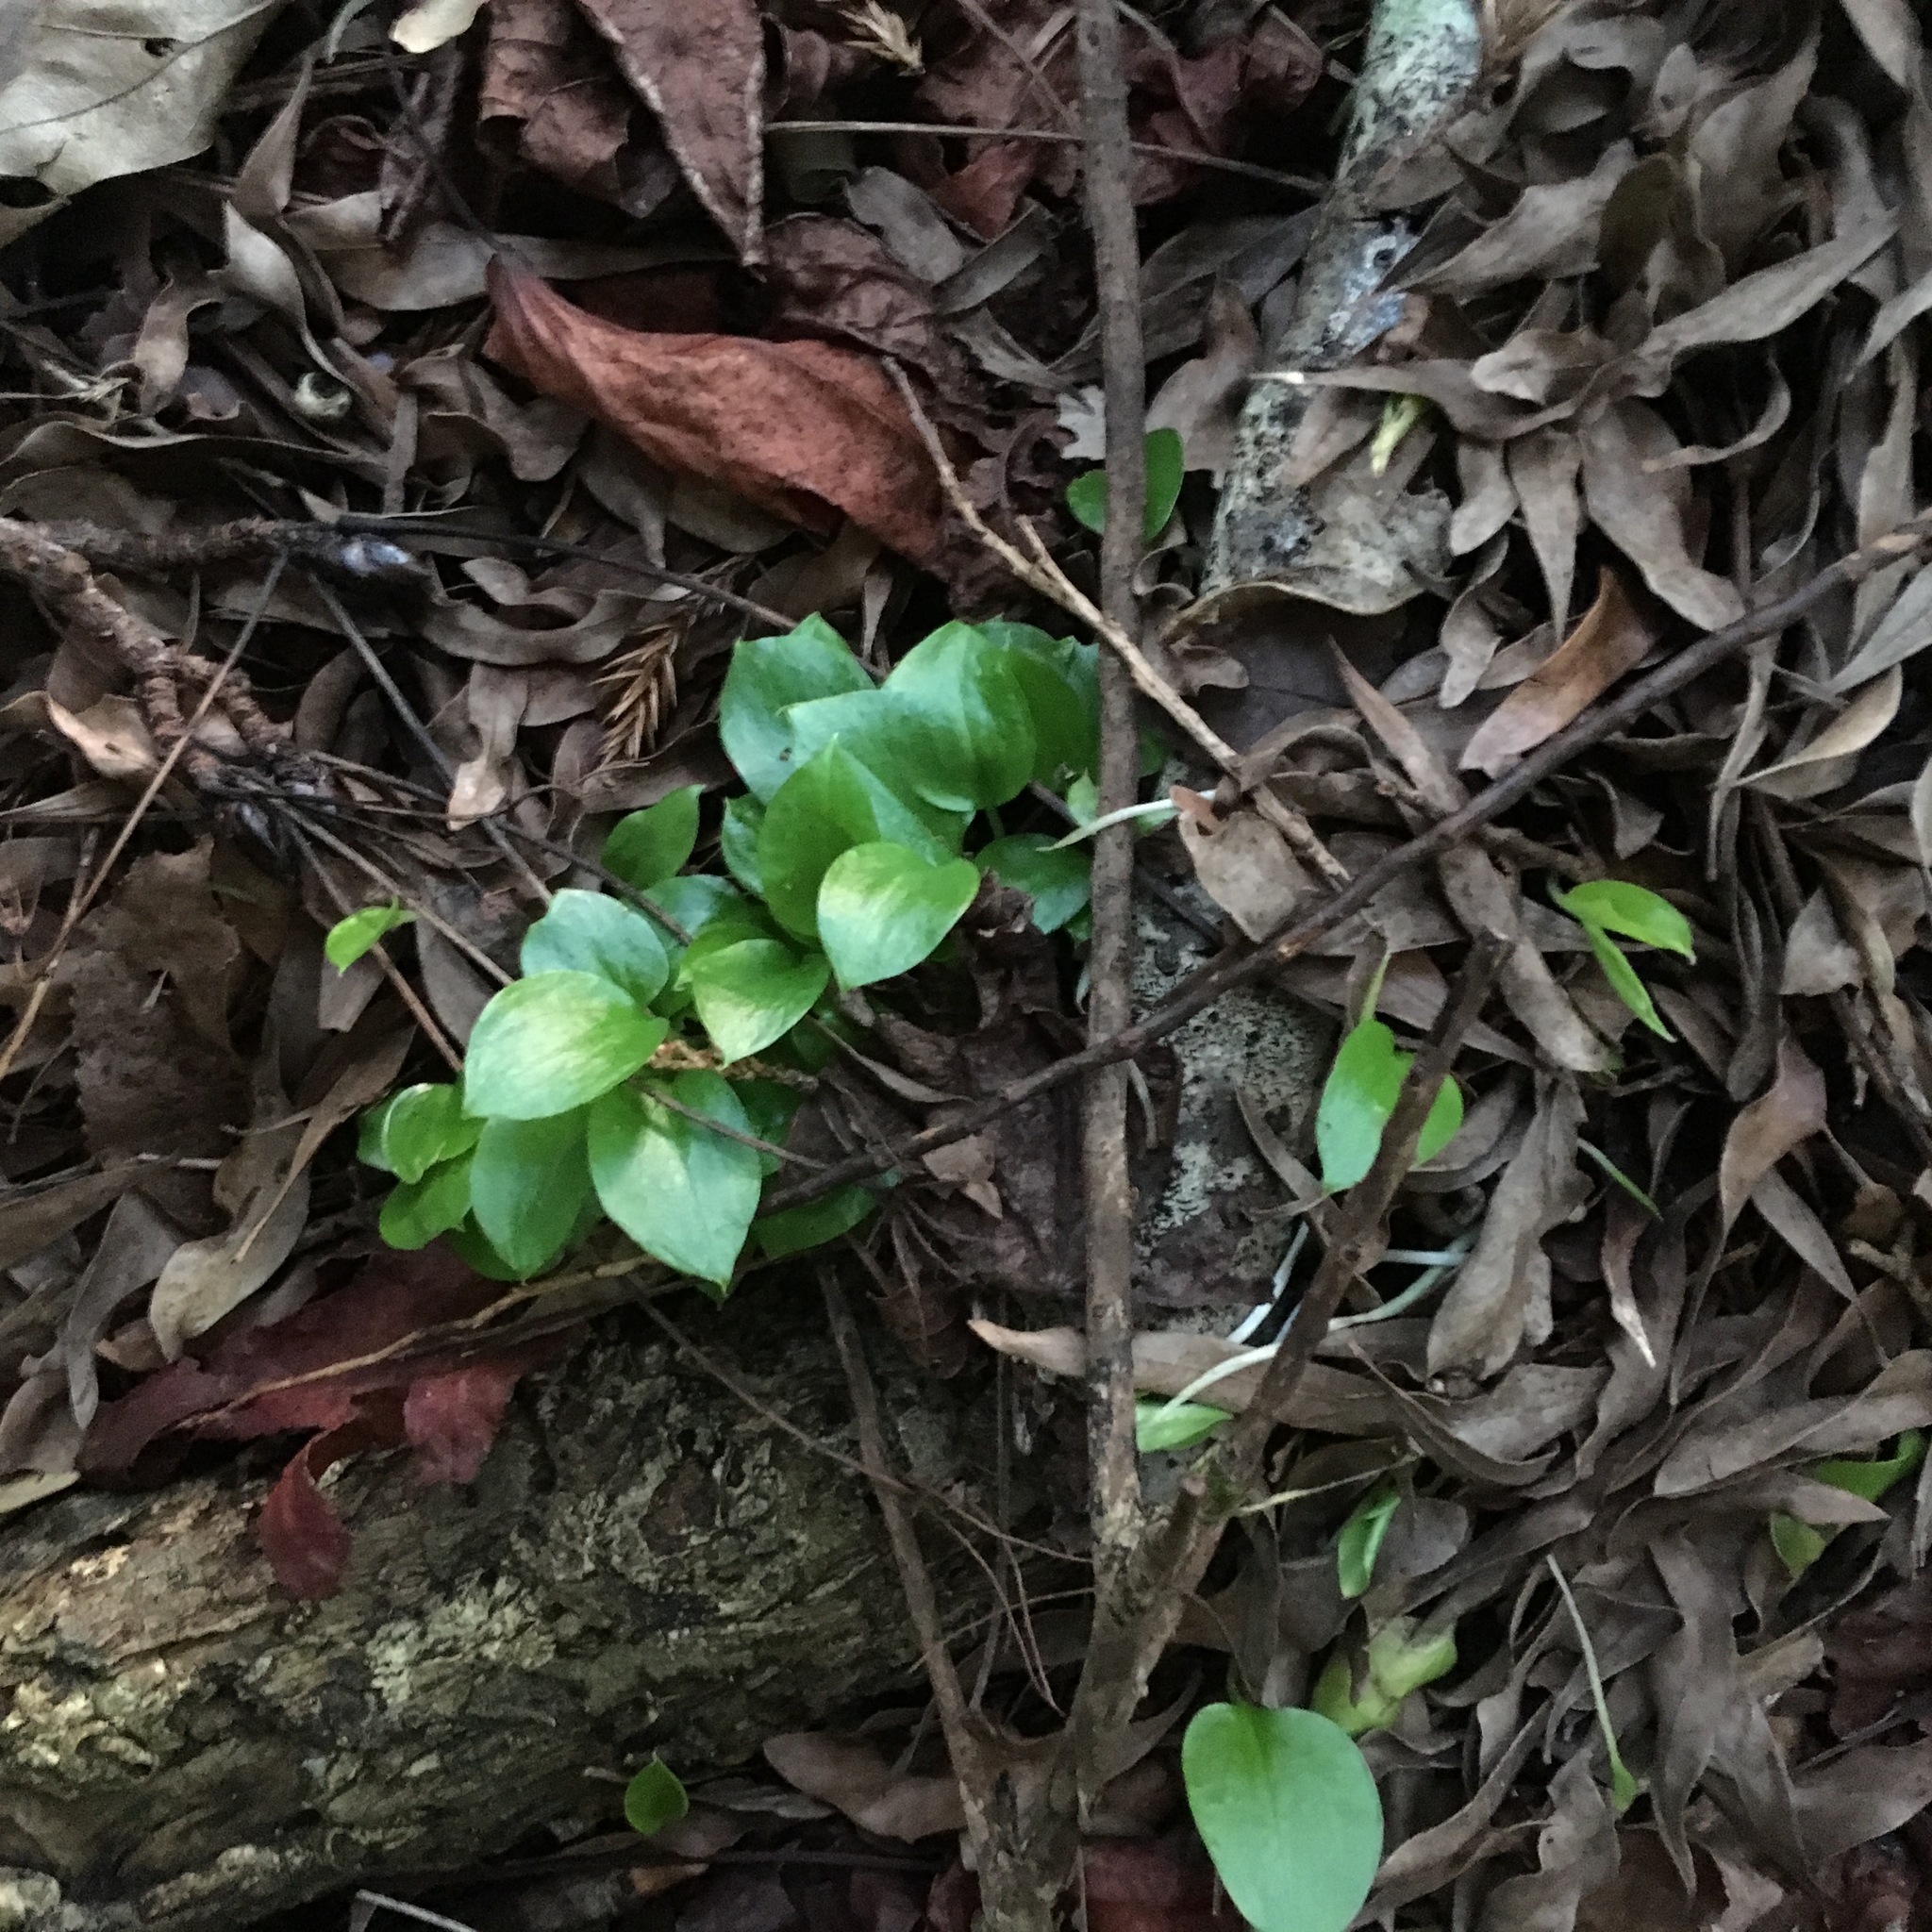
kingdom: Plantae
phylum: Tracheophyta
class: Liliopsida
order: Alismatales
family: Araceae
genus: Zantedeschia
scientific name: Zantedeschia aethiopica
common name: Altar-lily
